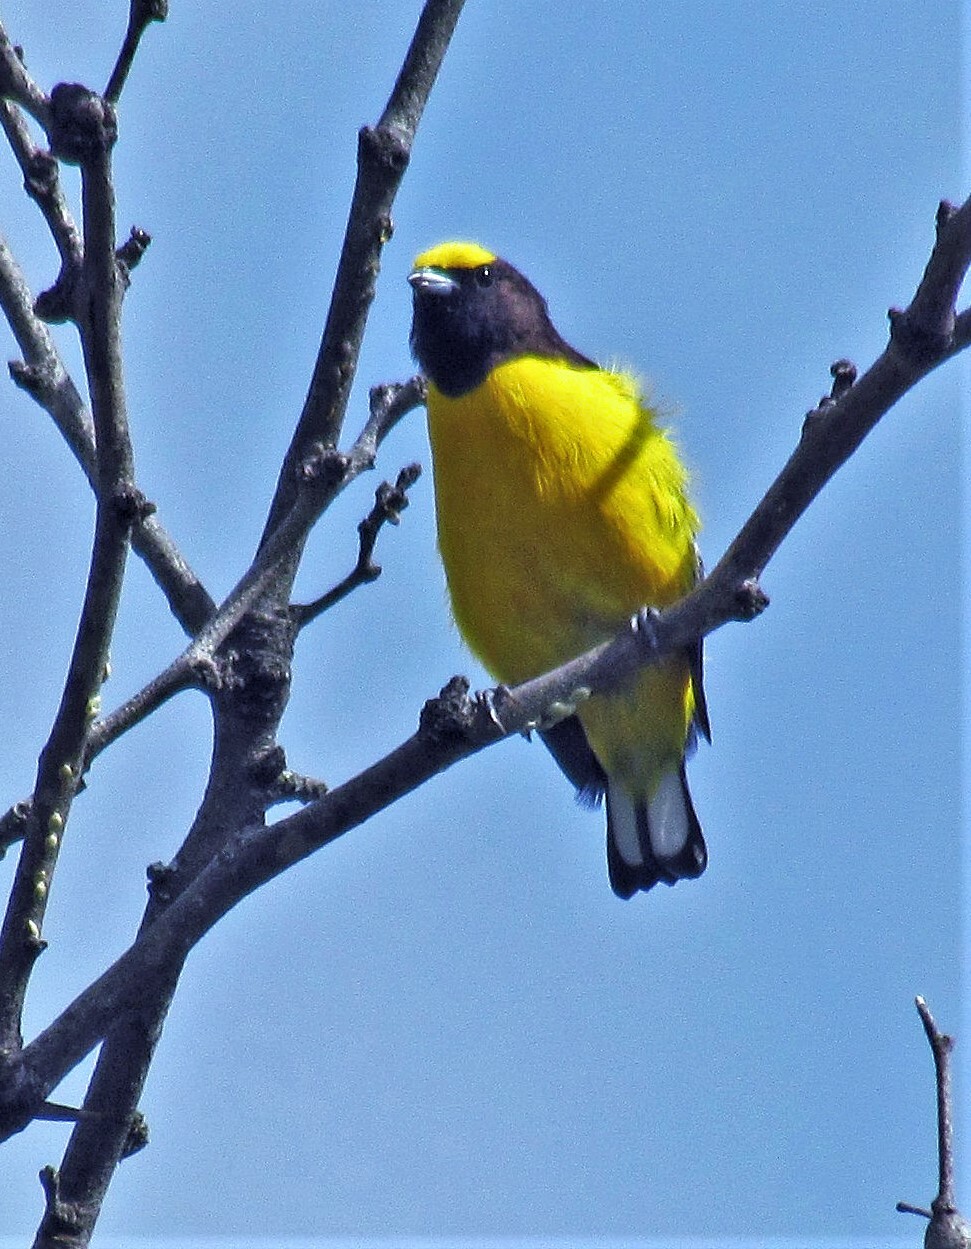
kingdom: Animalia
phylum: Chordata
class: Aves
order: Passeriformes
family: Fringillidae
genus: Euphonia
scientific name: Euphonia chlorotica
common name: Purple-throated euphonia
